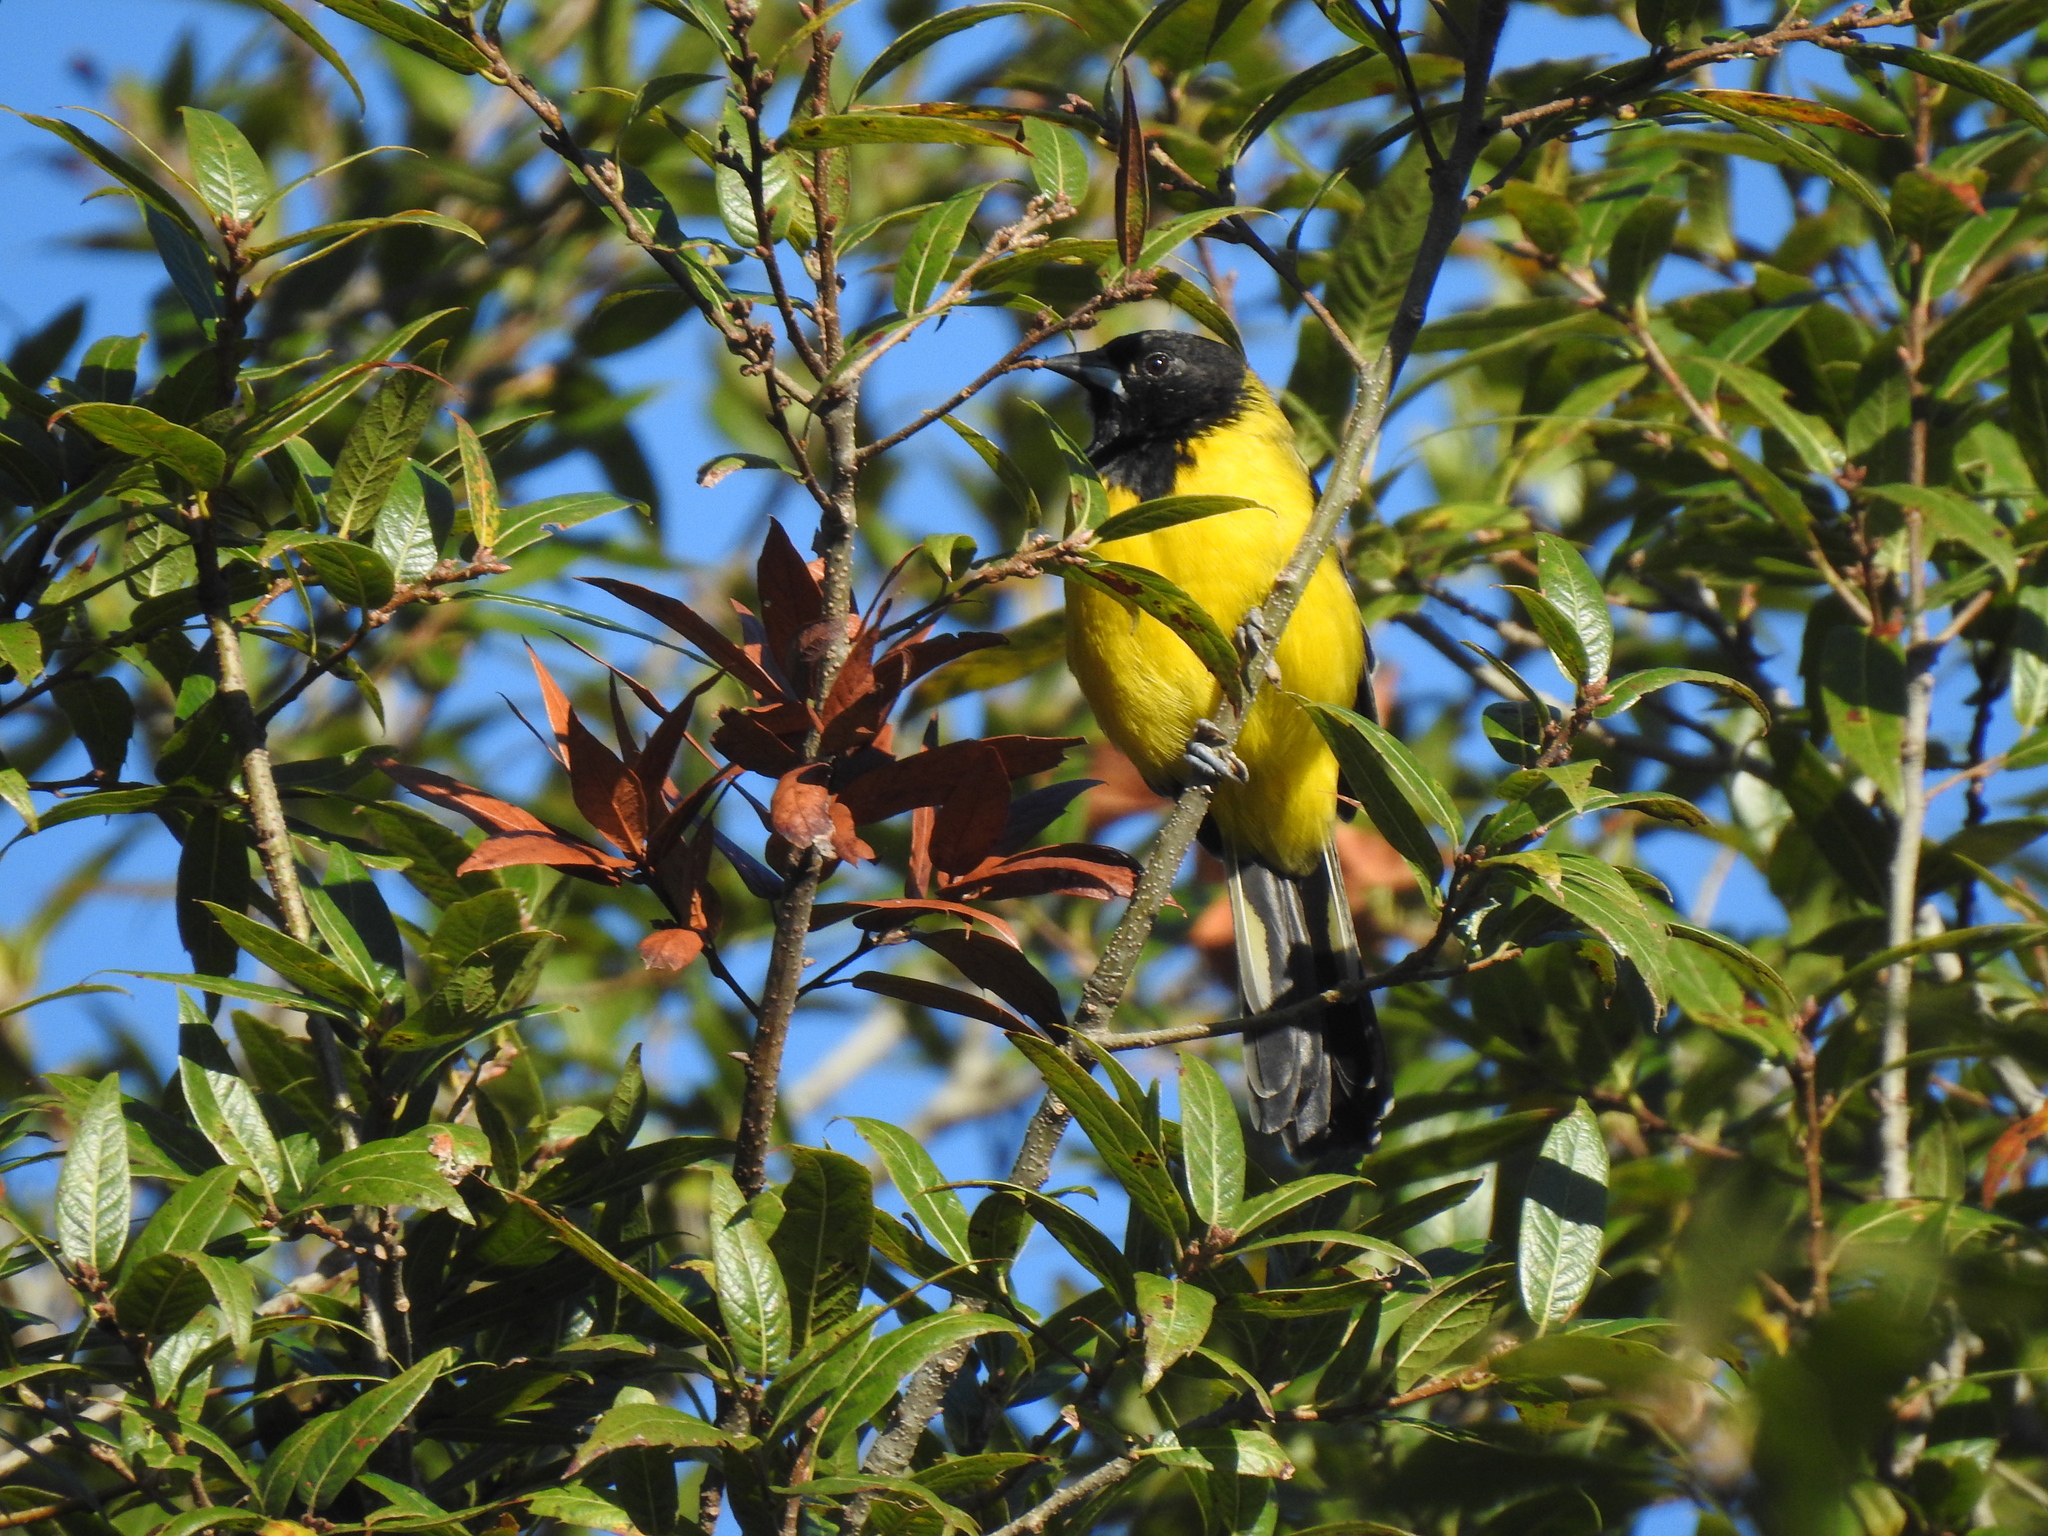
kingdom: Animalia
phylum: Chordata
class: Aves
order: Passeriformes
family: Icteridae
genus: Icterus
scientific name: Icterus graduacauda
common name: Audubon's oriole
